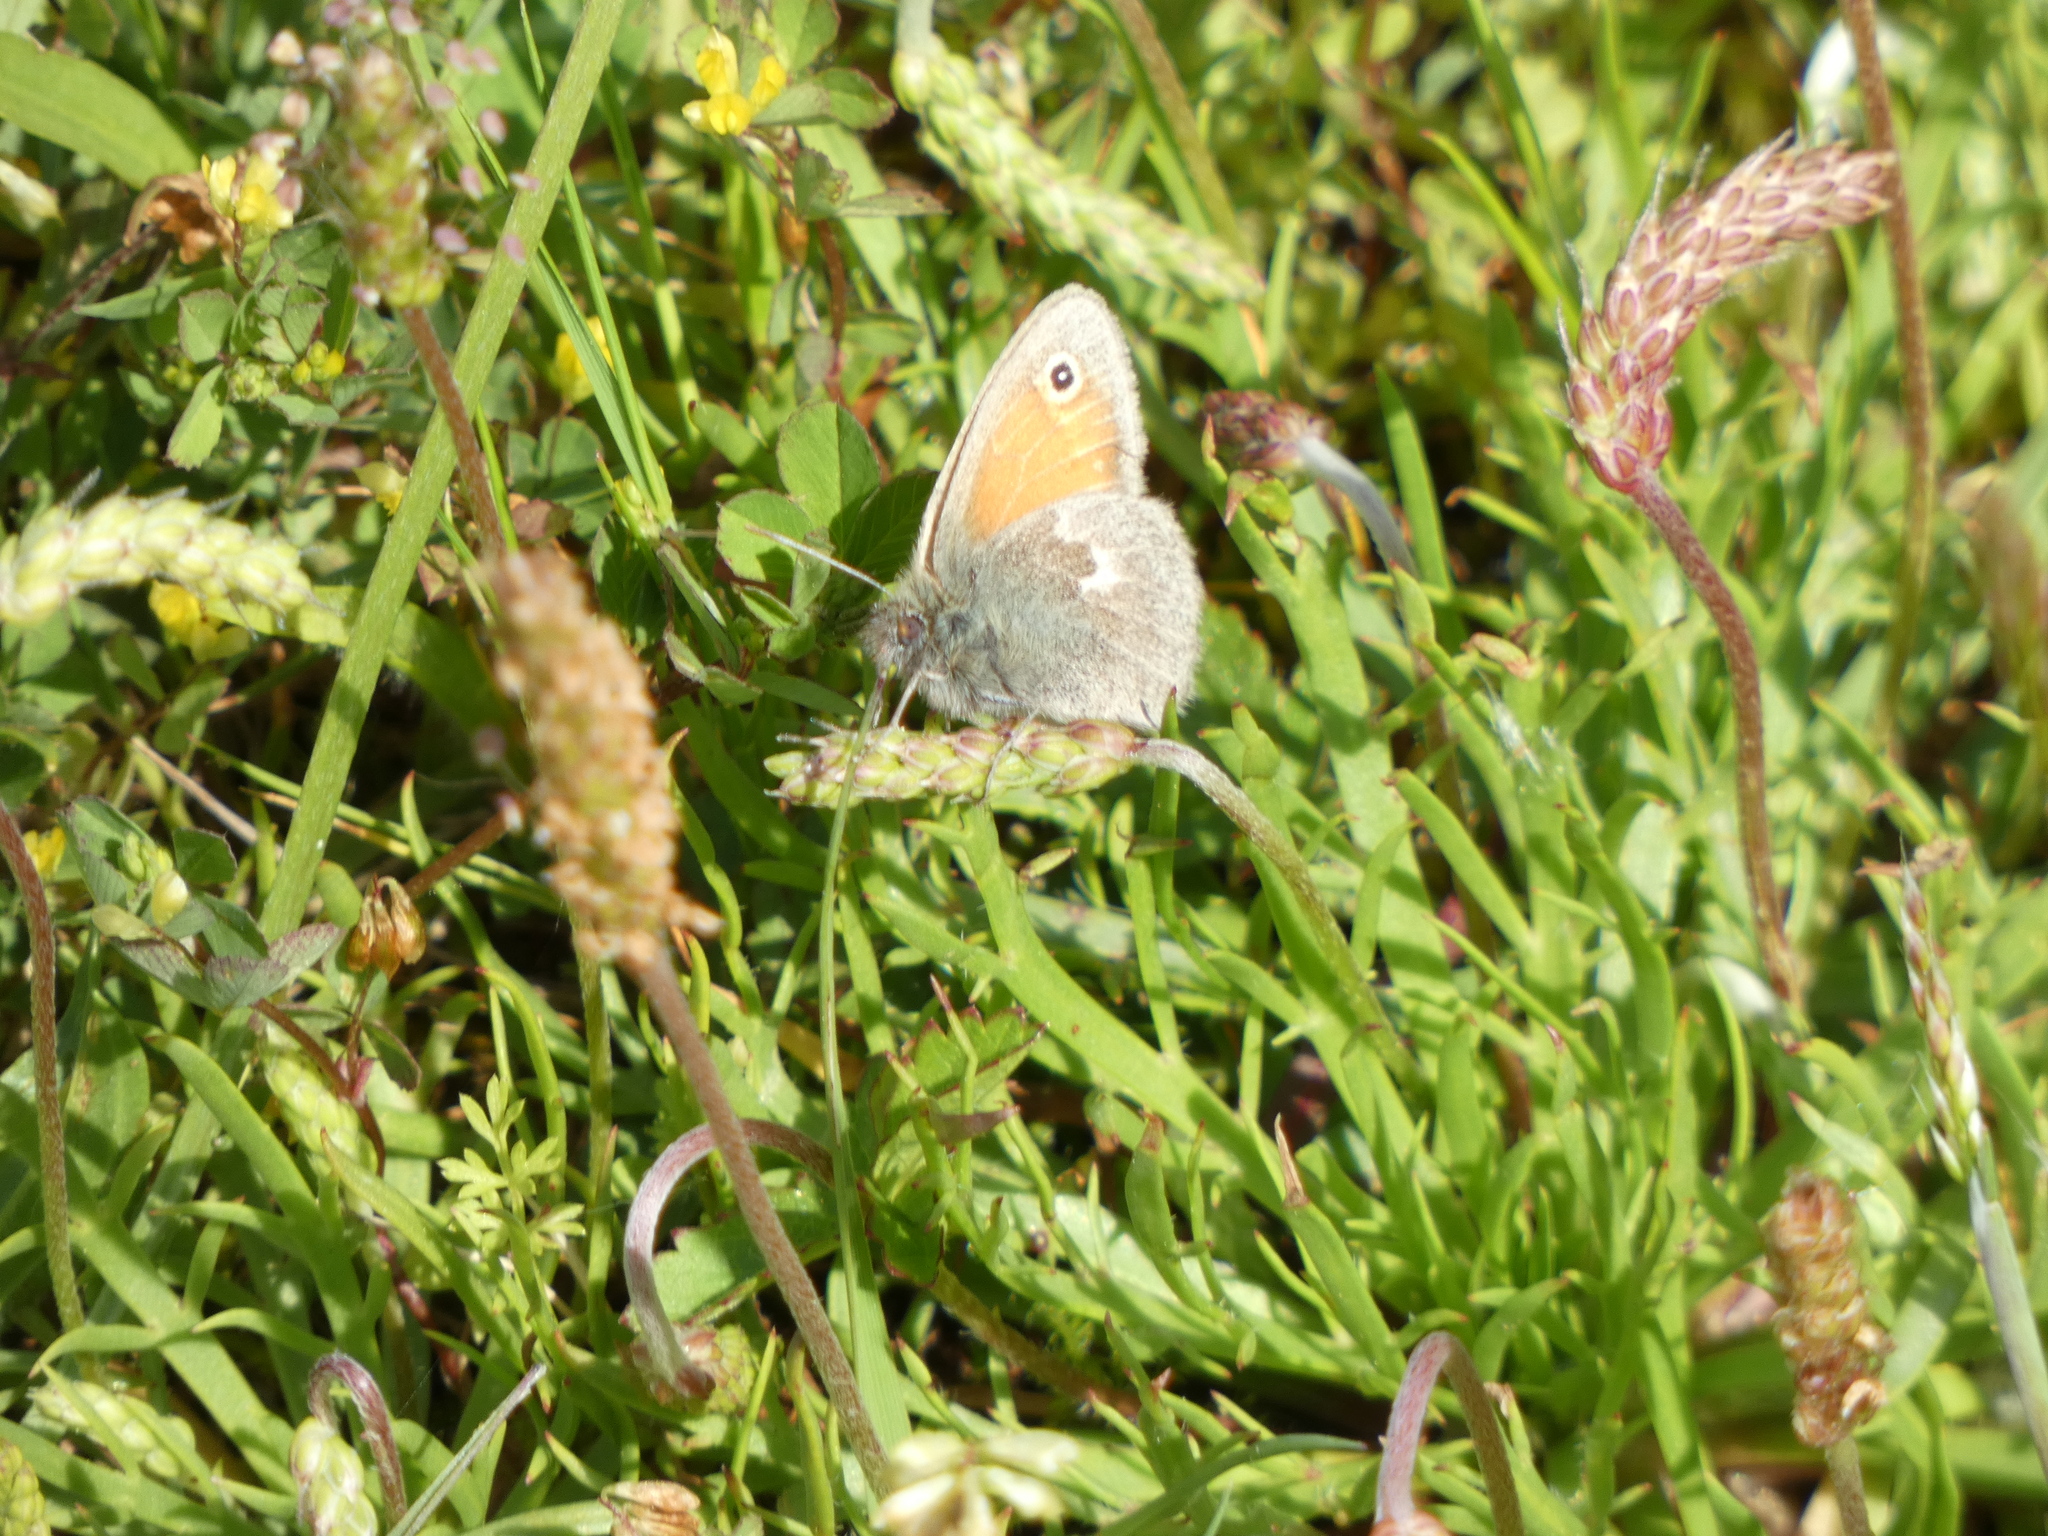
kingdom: Animalia
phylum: Arthropoda
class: Insecta
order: Lepidoptera
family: Nymphalidae
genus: Coenonympha
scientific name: Coenonympha pamphilus
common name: Small heath
